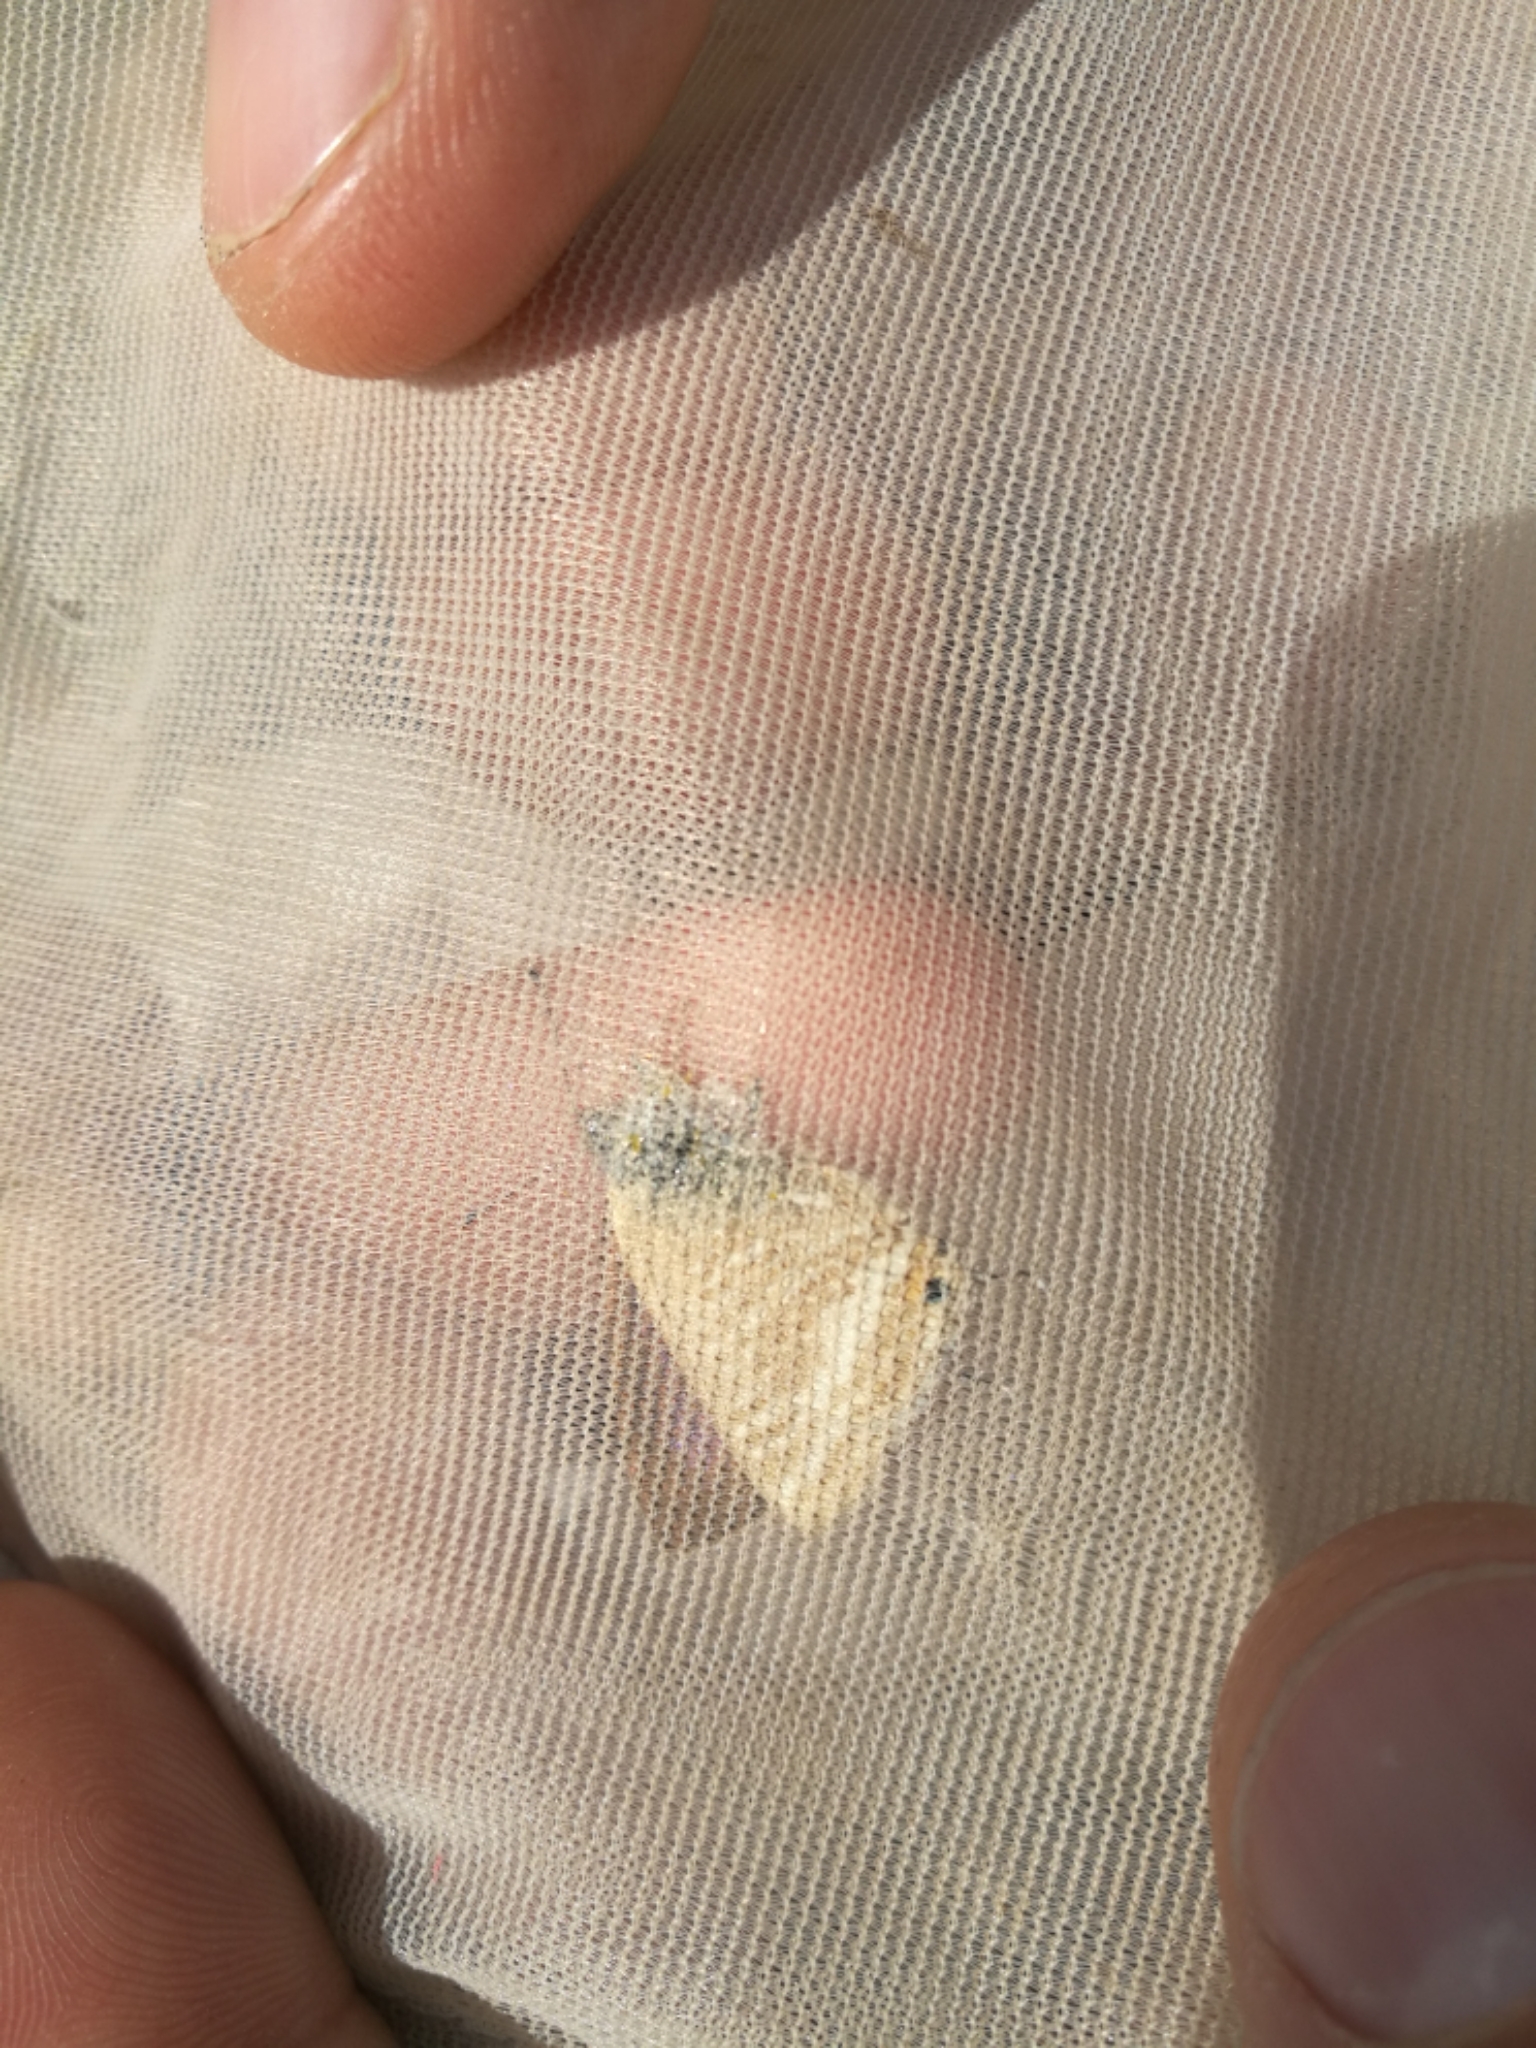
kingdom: Animalia
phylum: Arthropoda
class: Insecta
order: Lepidoptera
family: Lycaenidae
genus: Lampides
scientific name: Lampides boeticus
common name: Long-tailed blue
